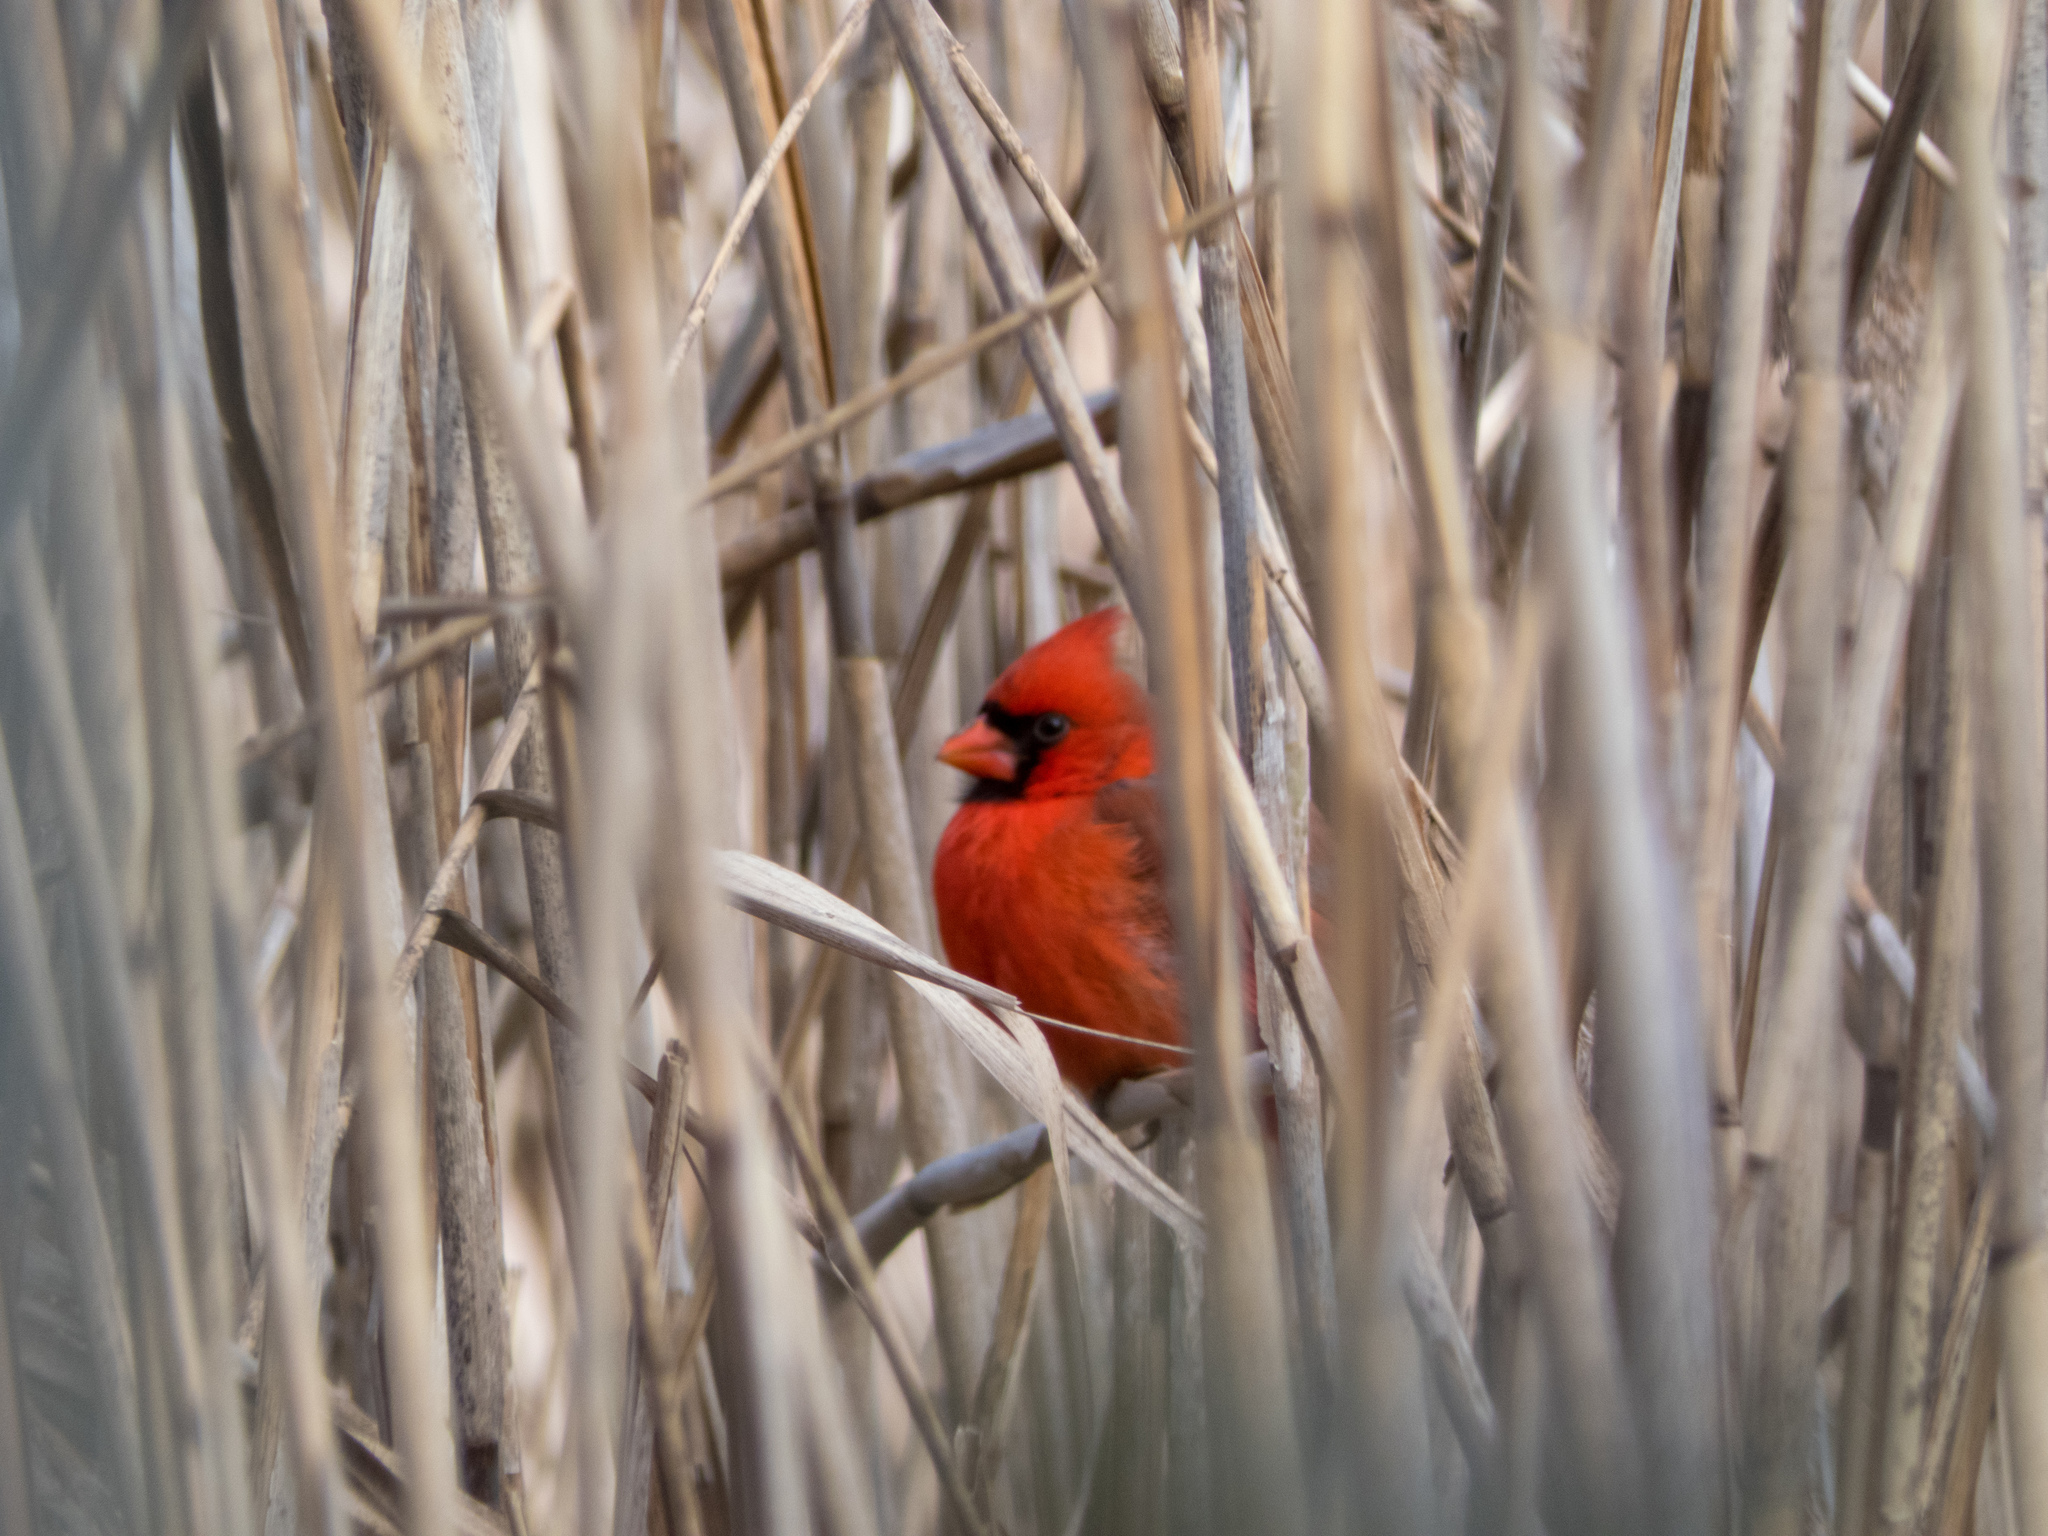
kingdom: Animalia
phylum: Chordata
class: Aves
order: Passeriformes
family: Cardinalidae
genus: Cardinalis
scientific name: Cardinalis cardinalis
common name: Northern cardinal
